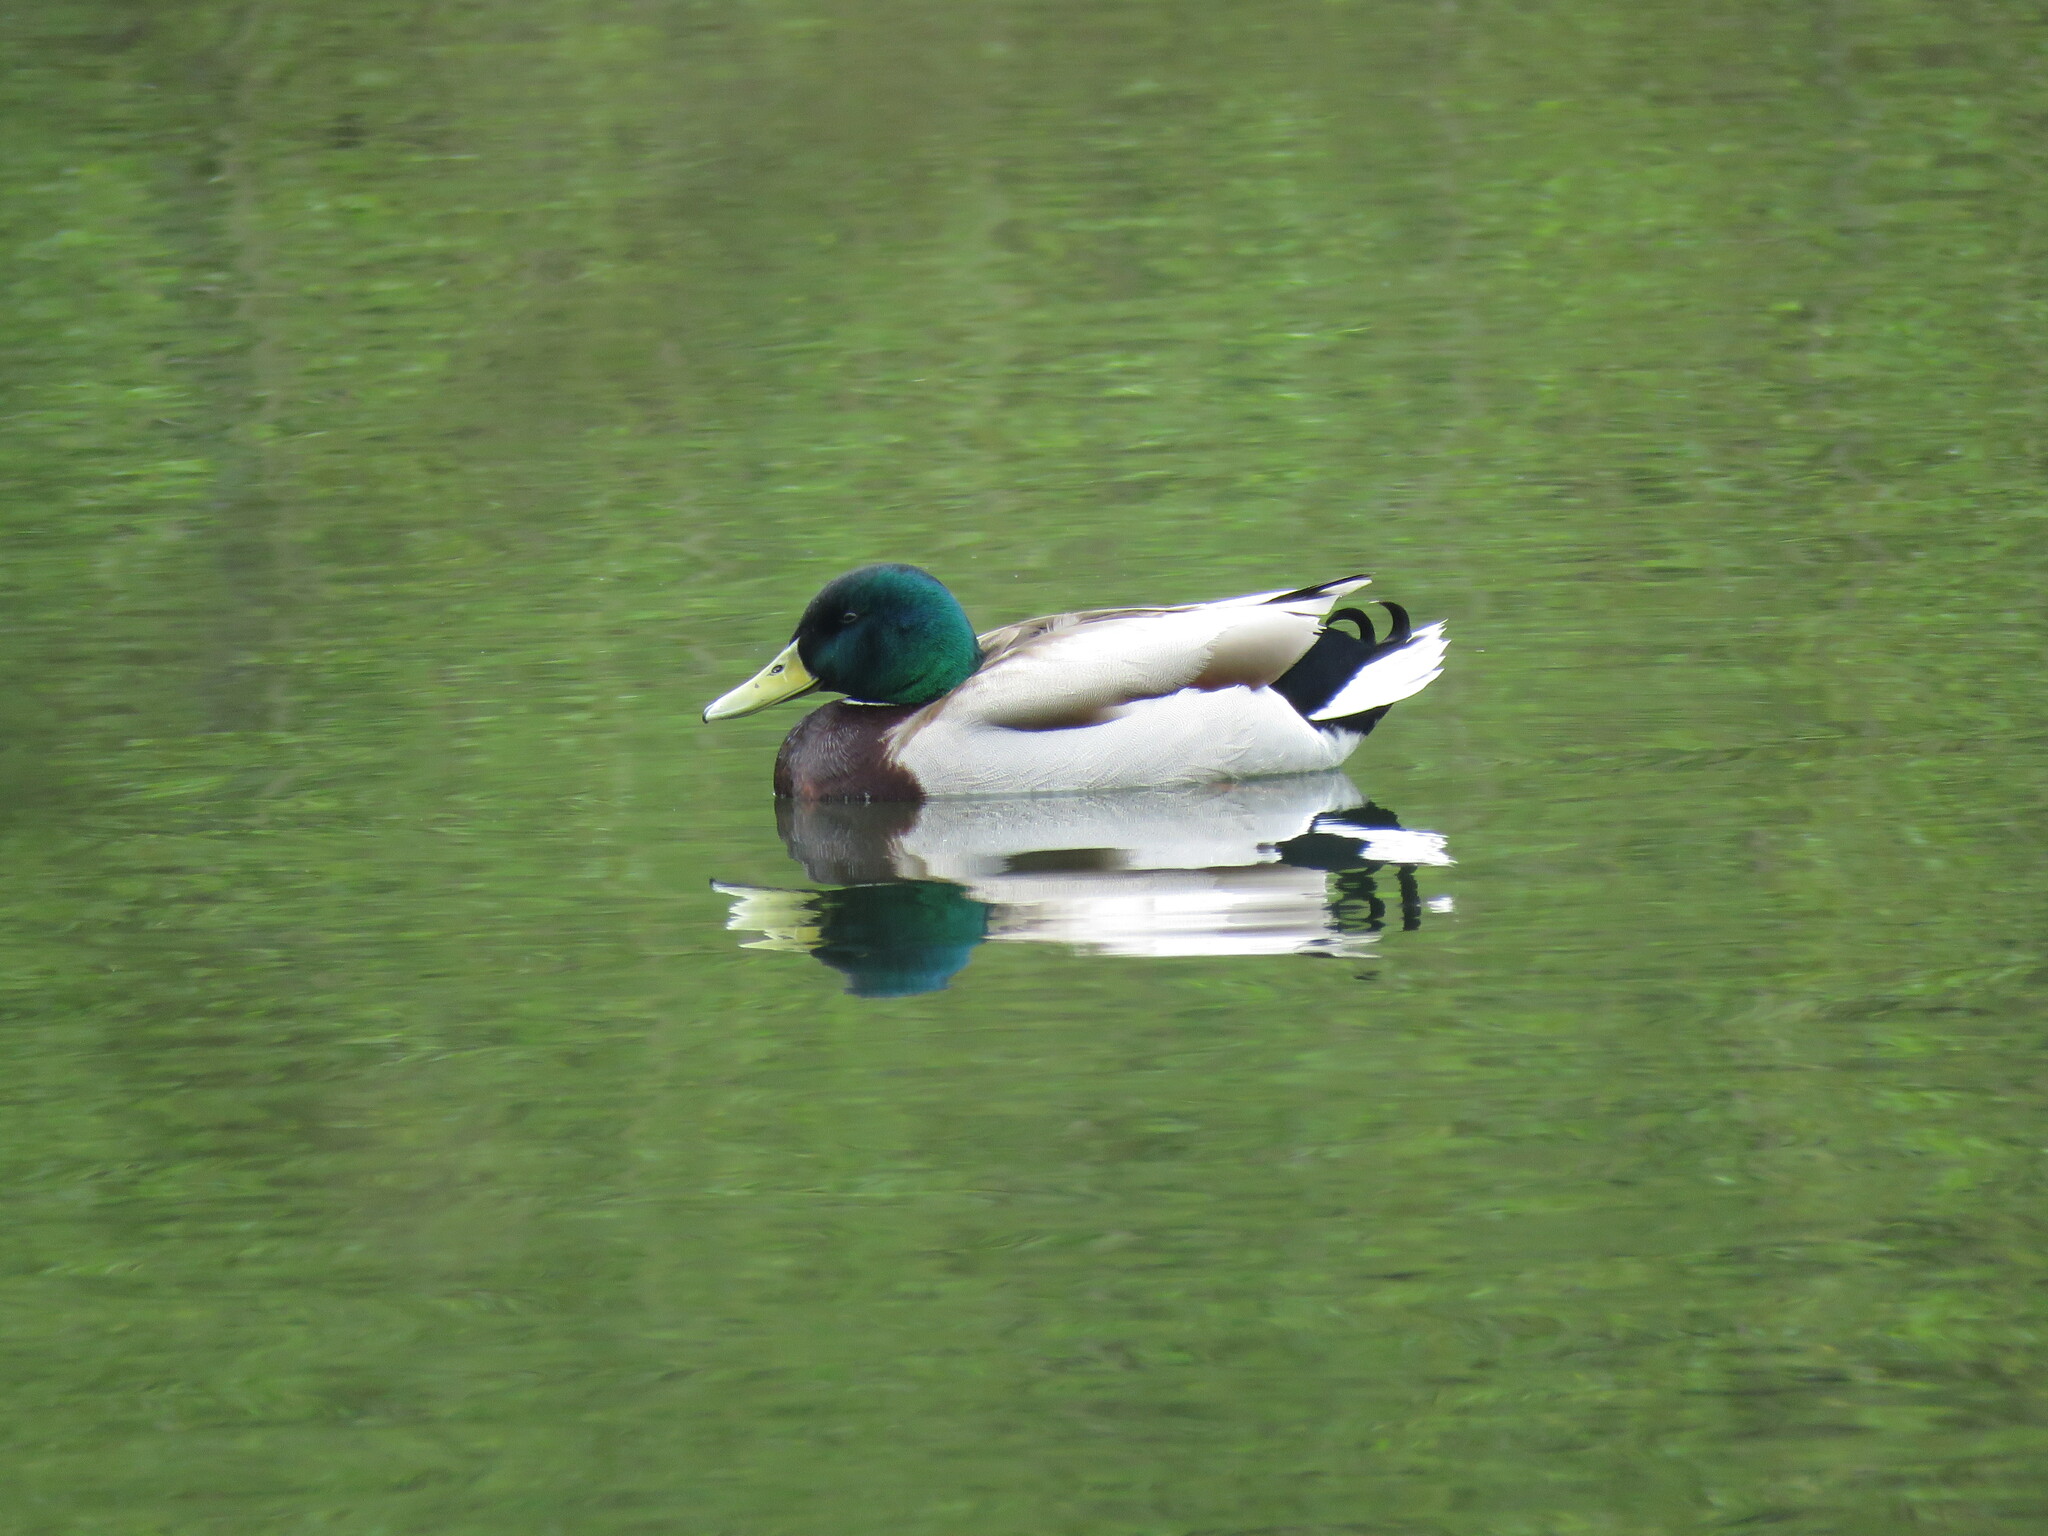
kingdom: Animalia
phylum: Chordata
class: Aves
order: Anseriformes
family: Anatidae
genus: Anas
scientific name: Anas platyrhynchos
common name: Mallard
